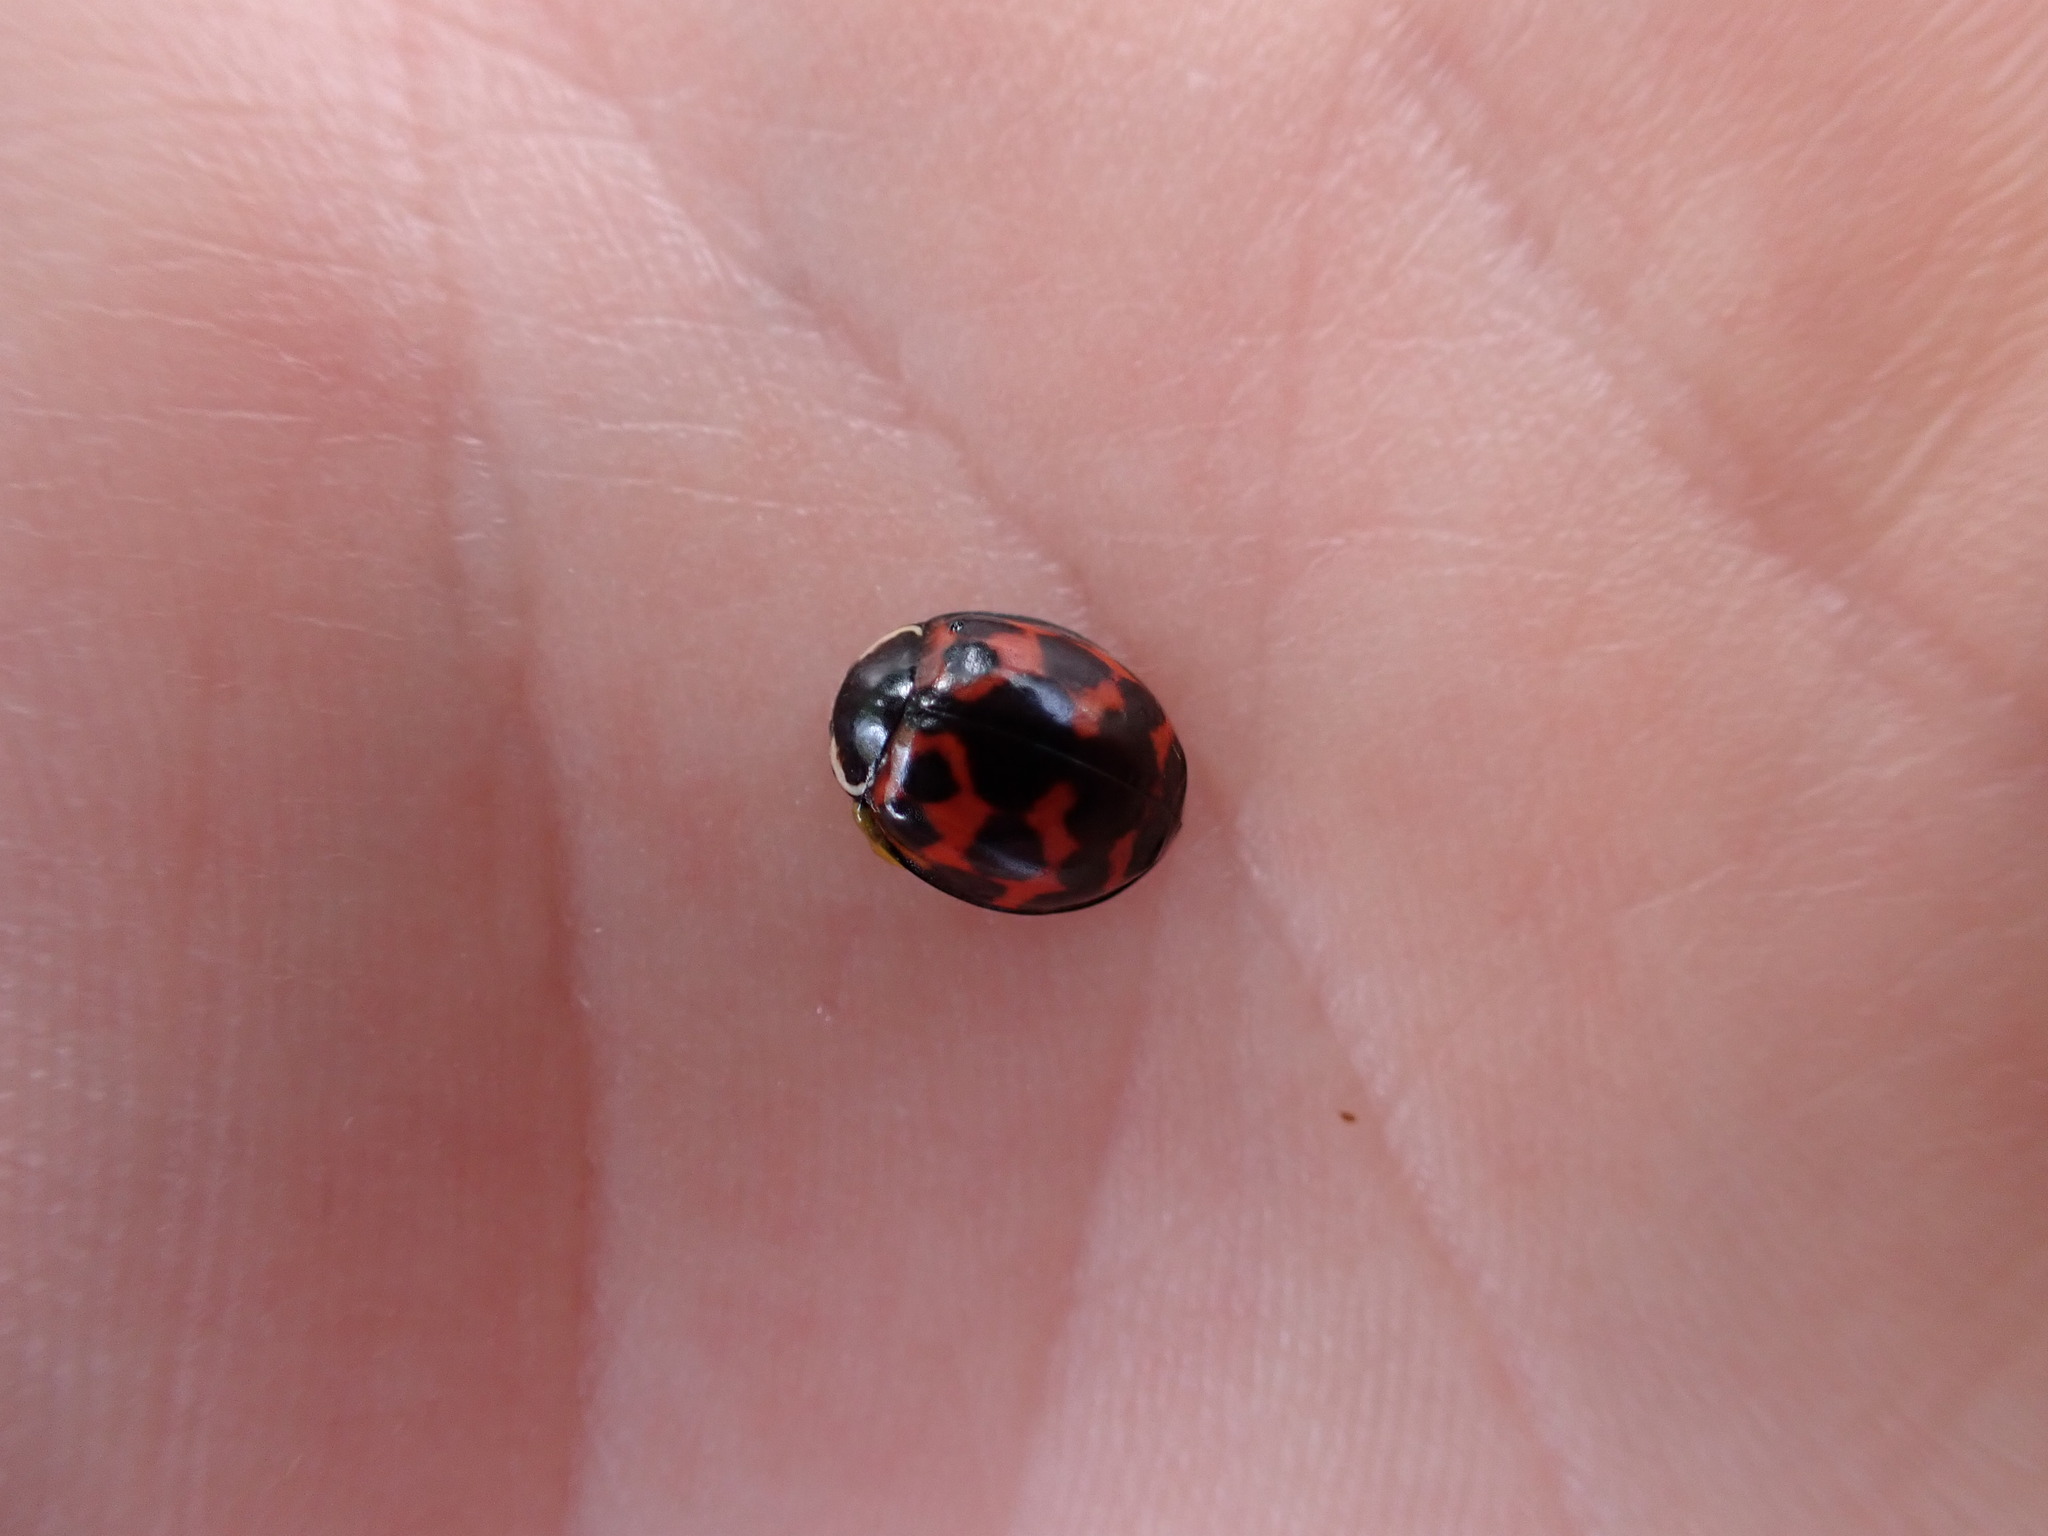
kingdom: Animalia
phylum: Arthropoda
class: Insecta
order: Coleoptera
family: Coccinellidae
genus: Harmonia
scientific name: Harmonia axyridis
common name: Harlequin ladybird
